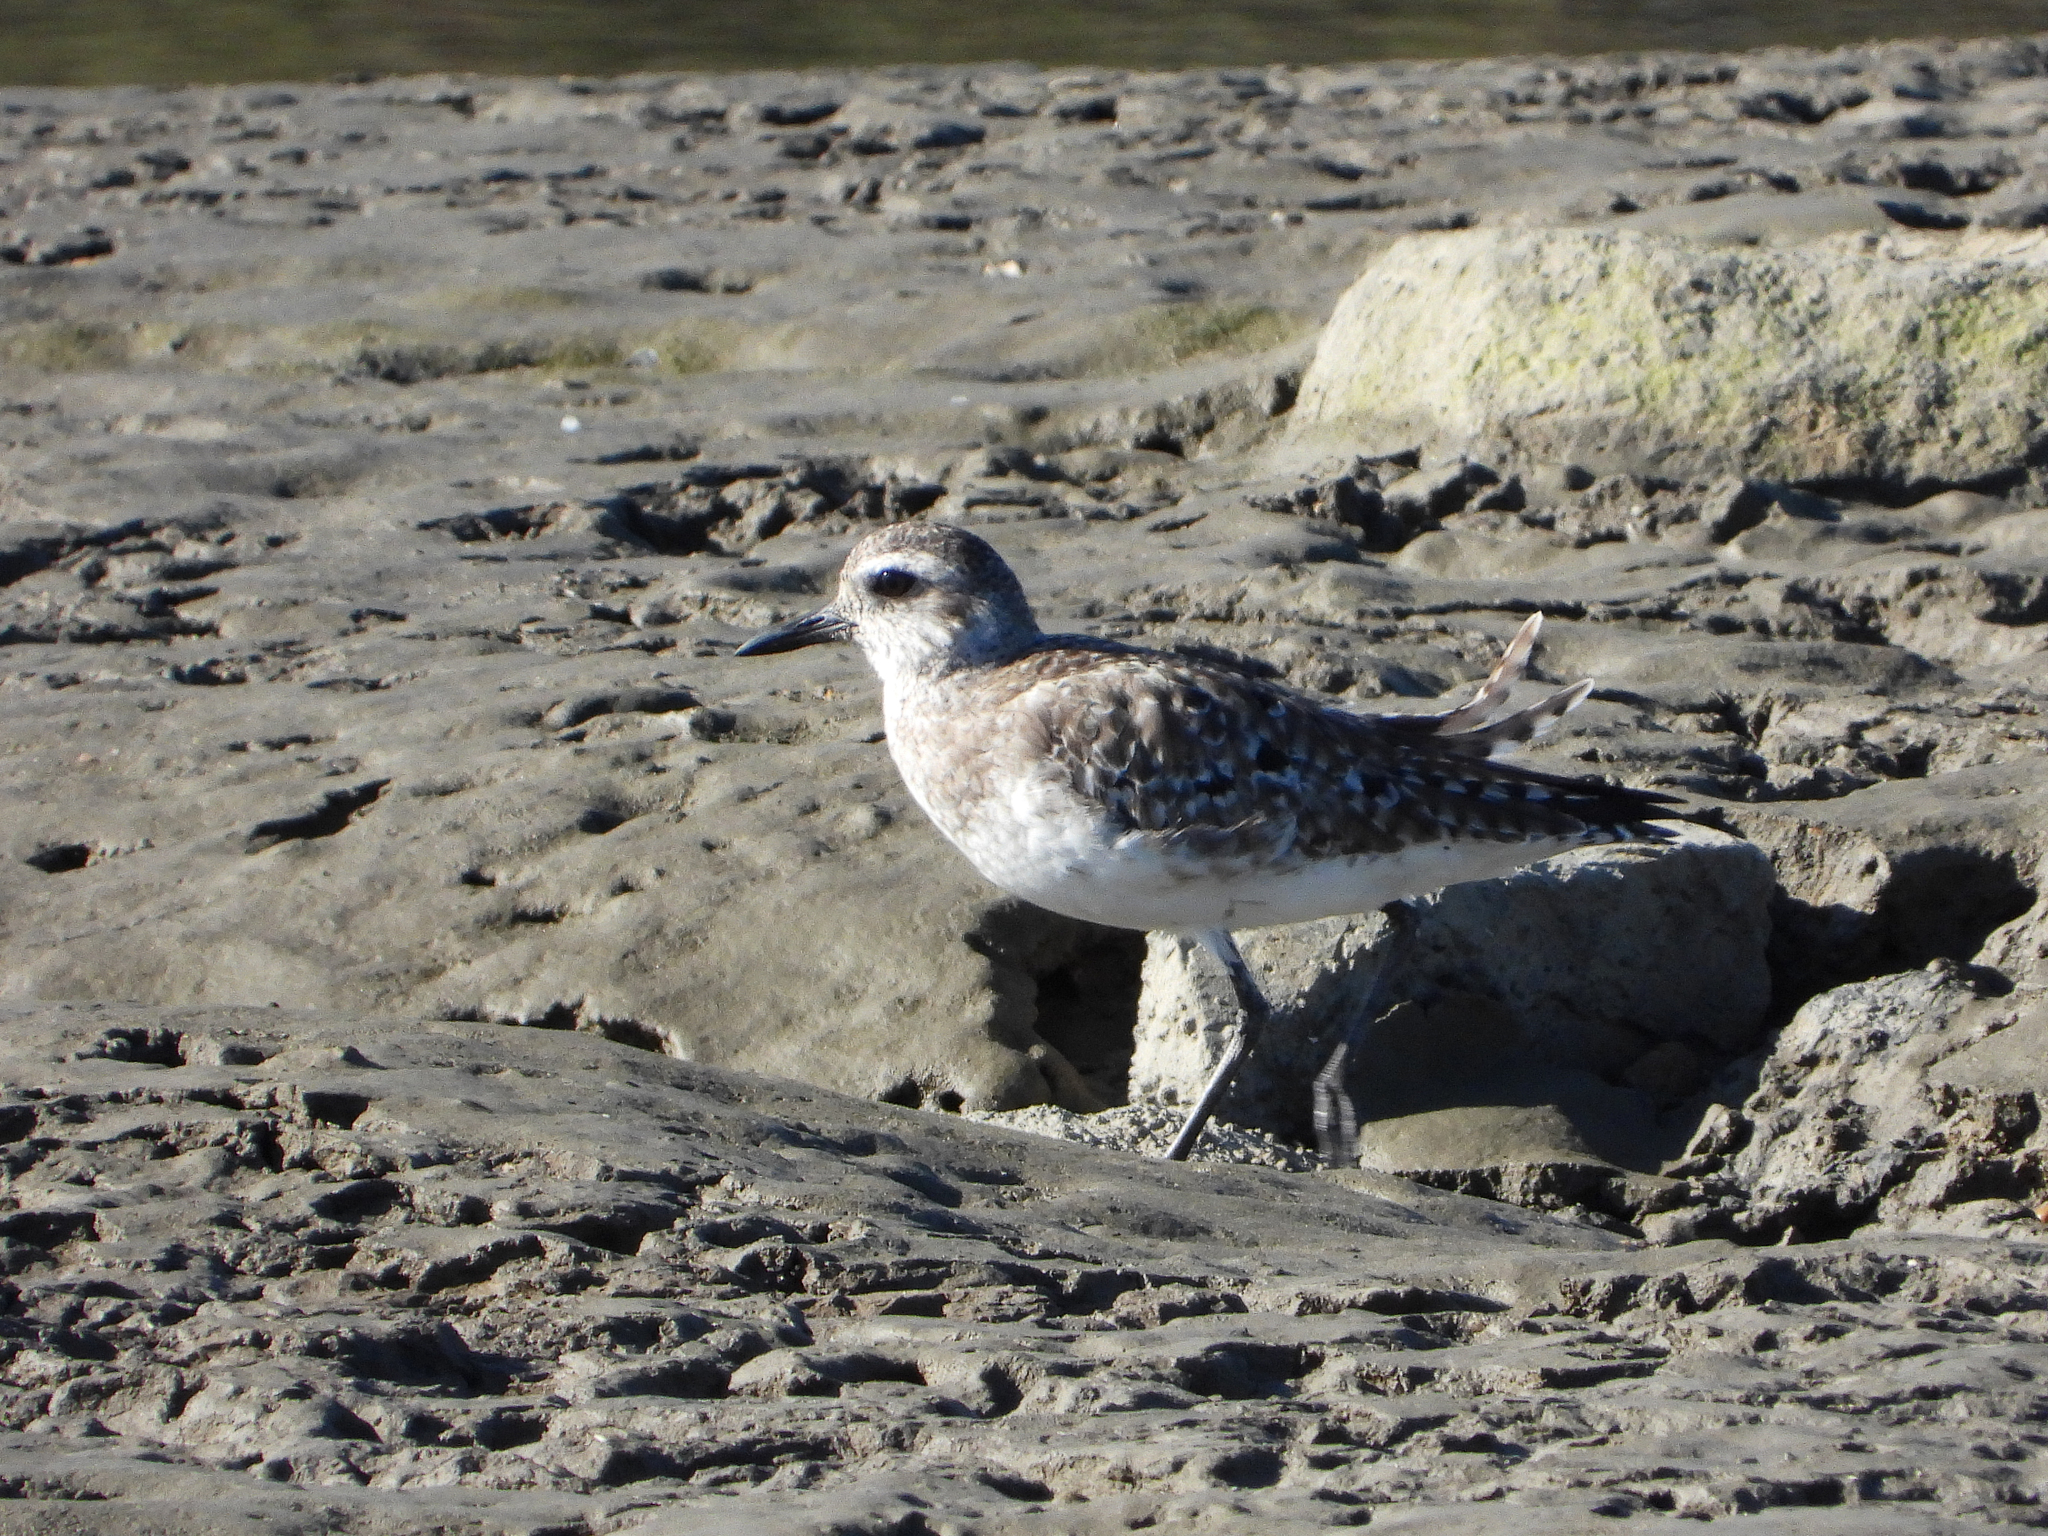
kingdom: Animalia
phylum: Chordata
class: Aves
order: Charadriiformes
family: Charadriidae
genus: Pluvialis
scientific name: Pluvialis squatarola
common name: Grey plover
